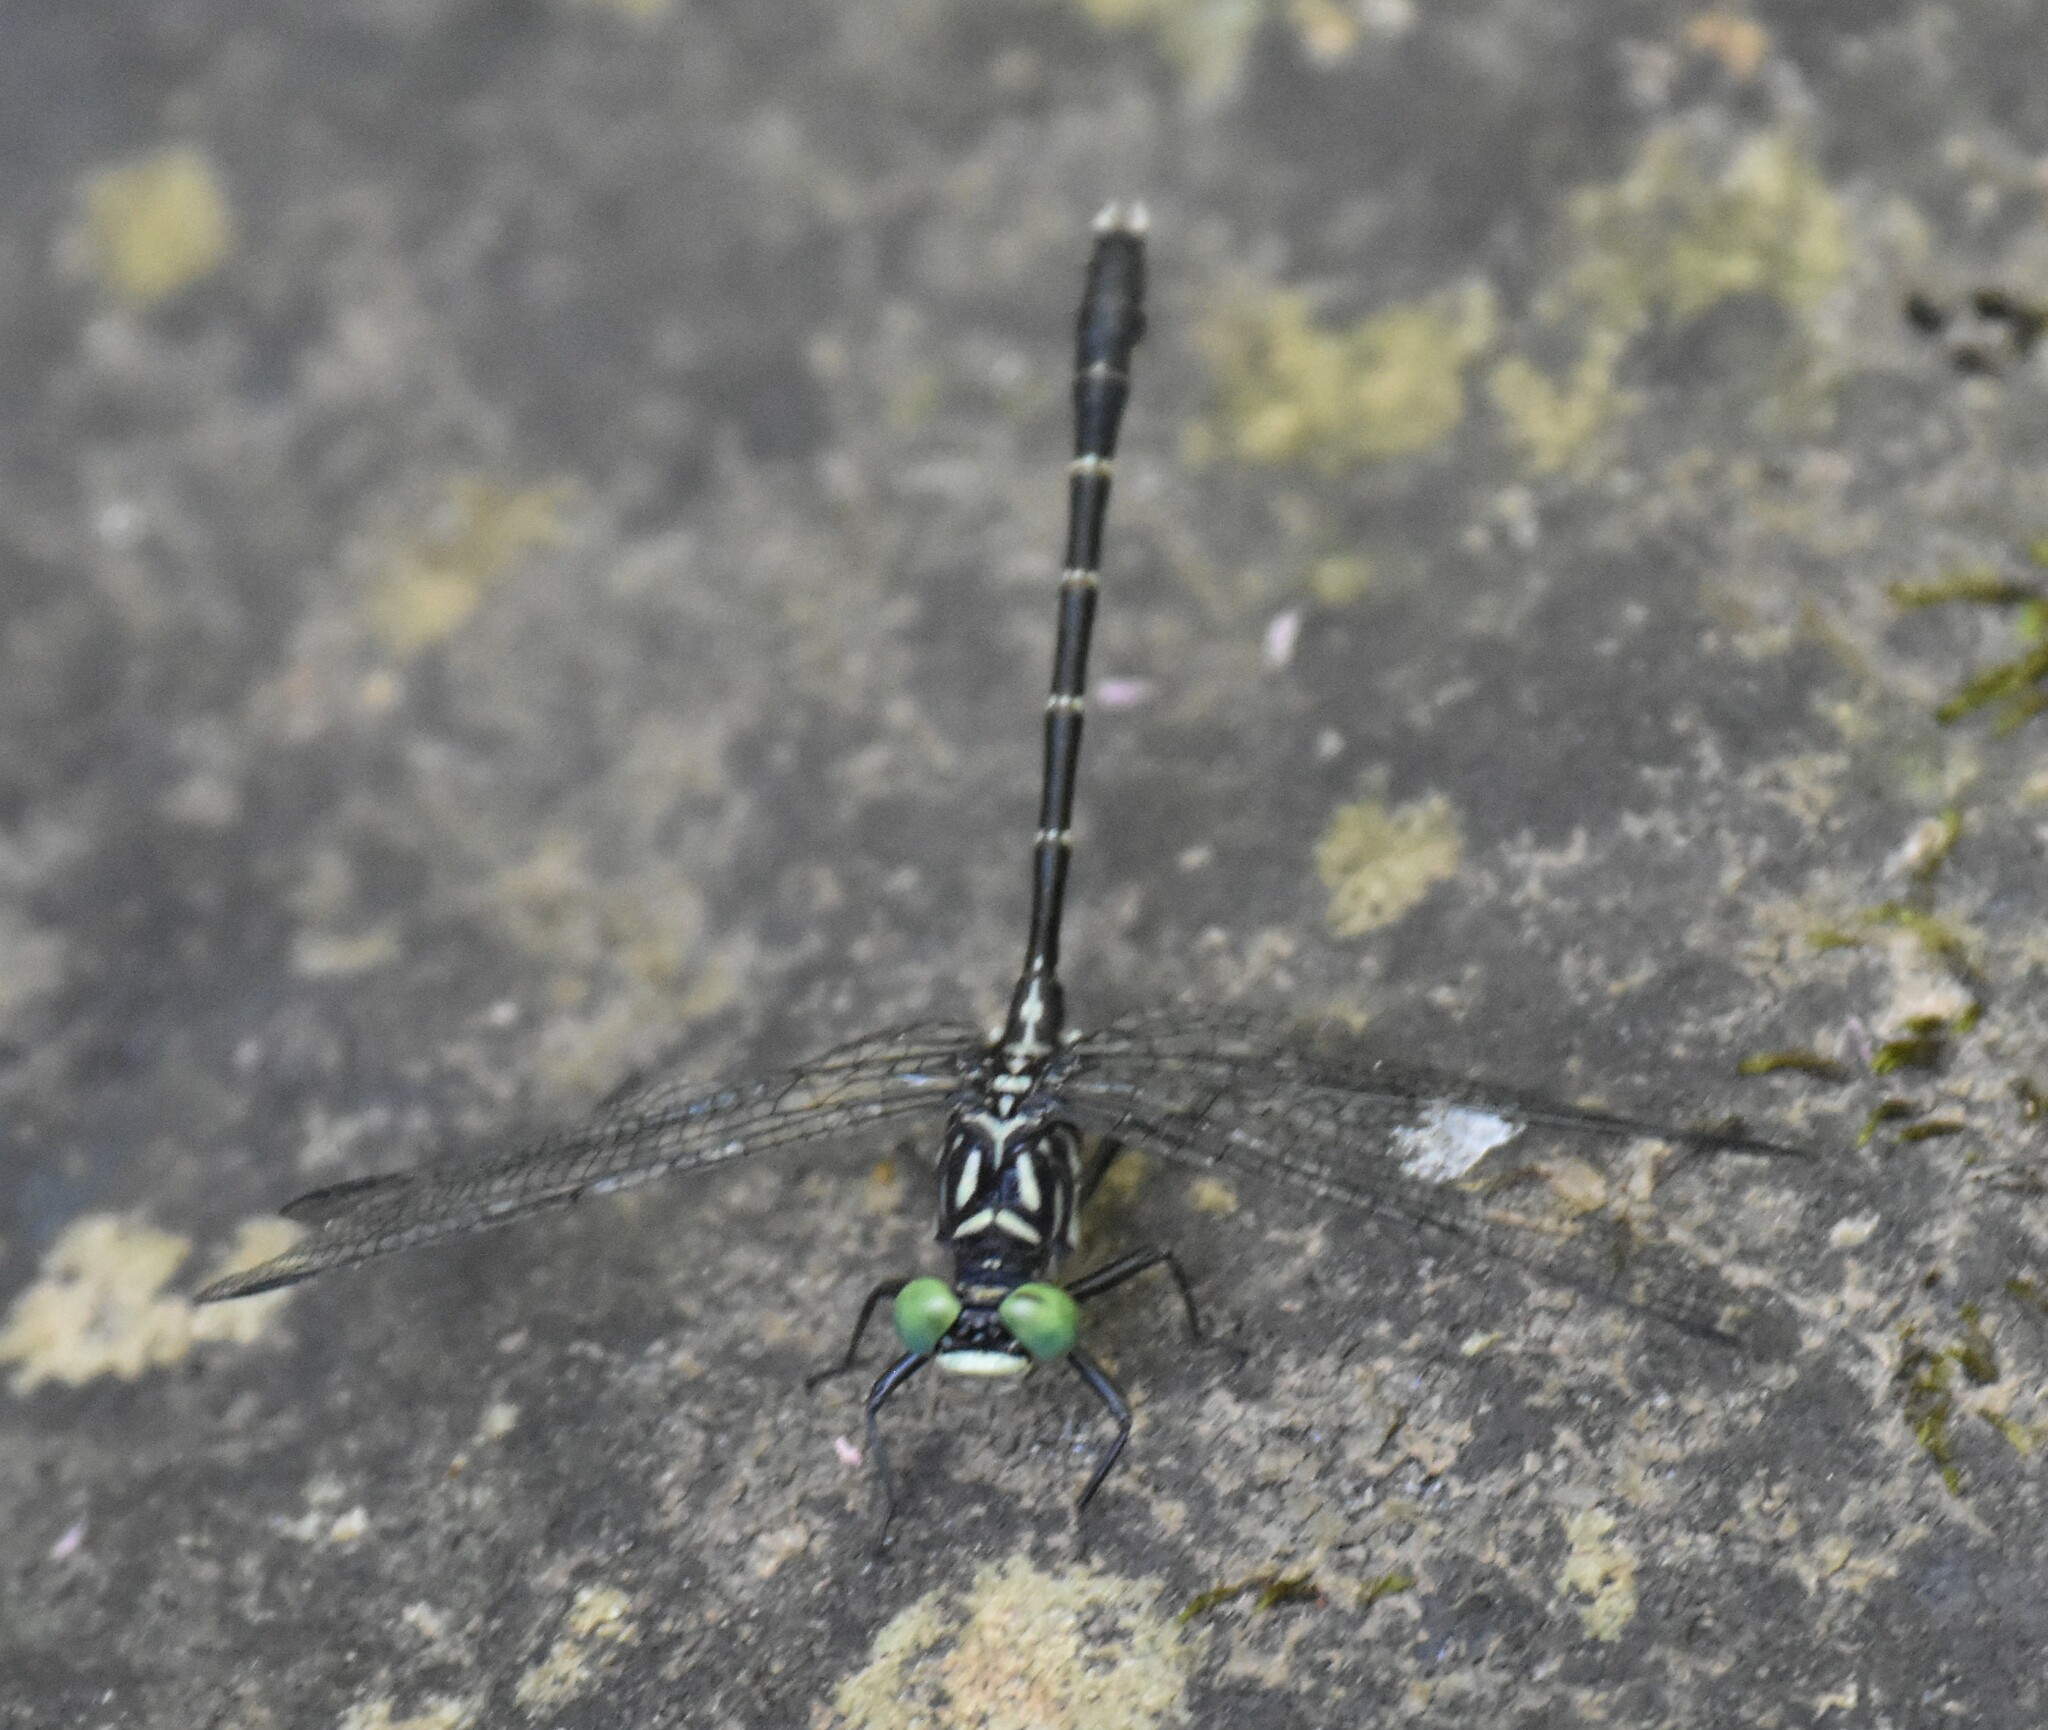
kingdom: Animalia
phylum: Arthropoda
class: Insecta
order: Odonata
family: Gomphidae
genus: Stylogomphus
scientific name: Stylogomphus albistylus
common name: Eastern least clubtail
